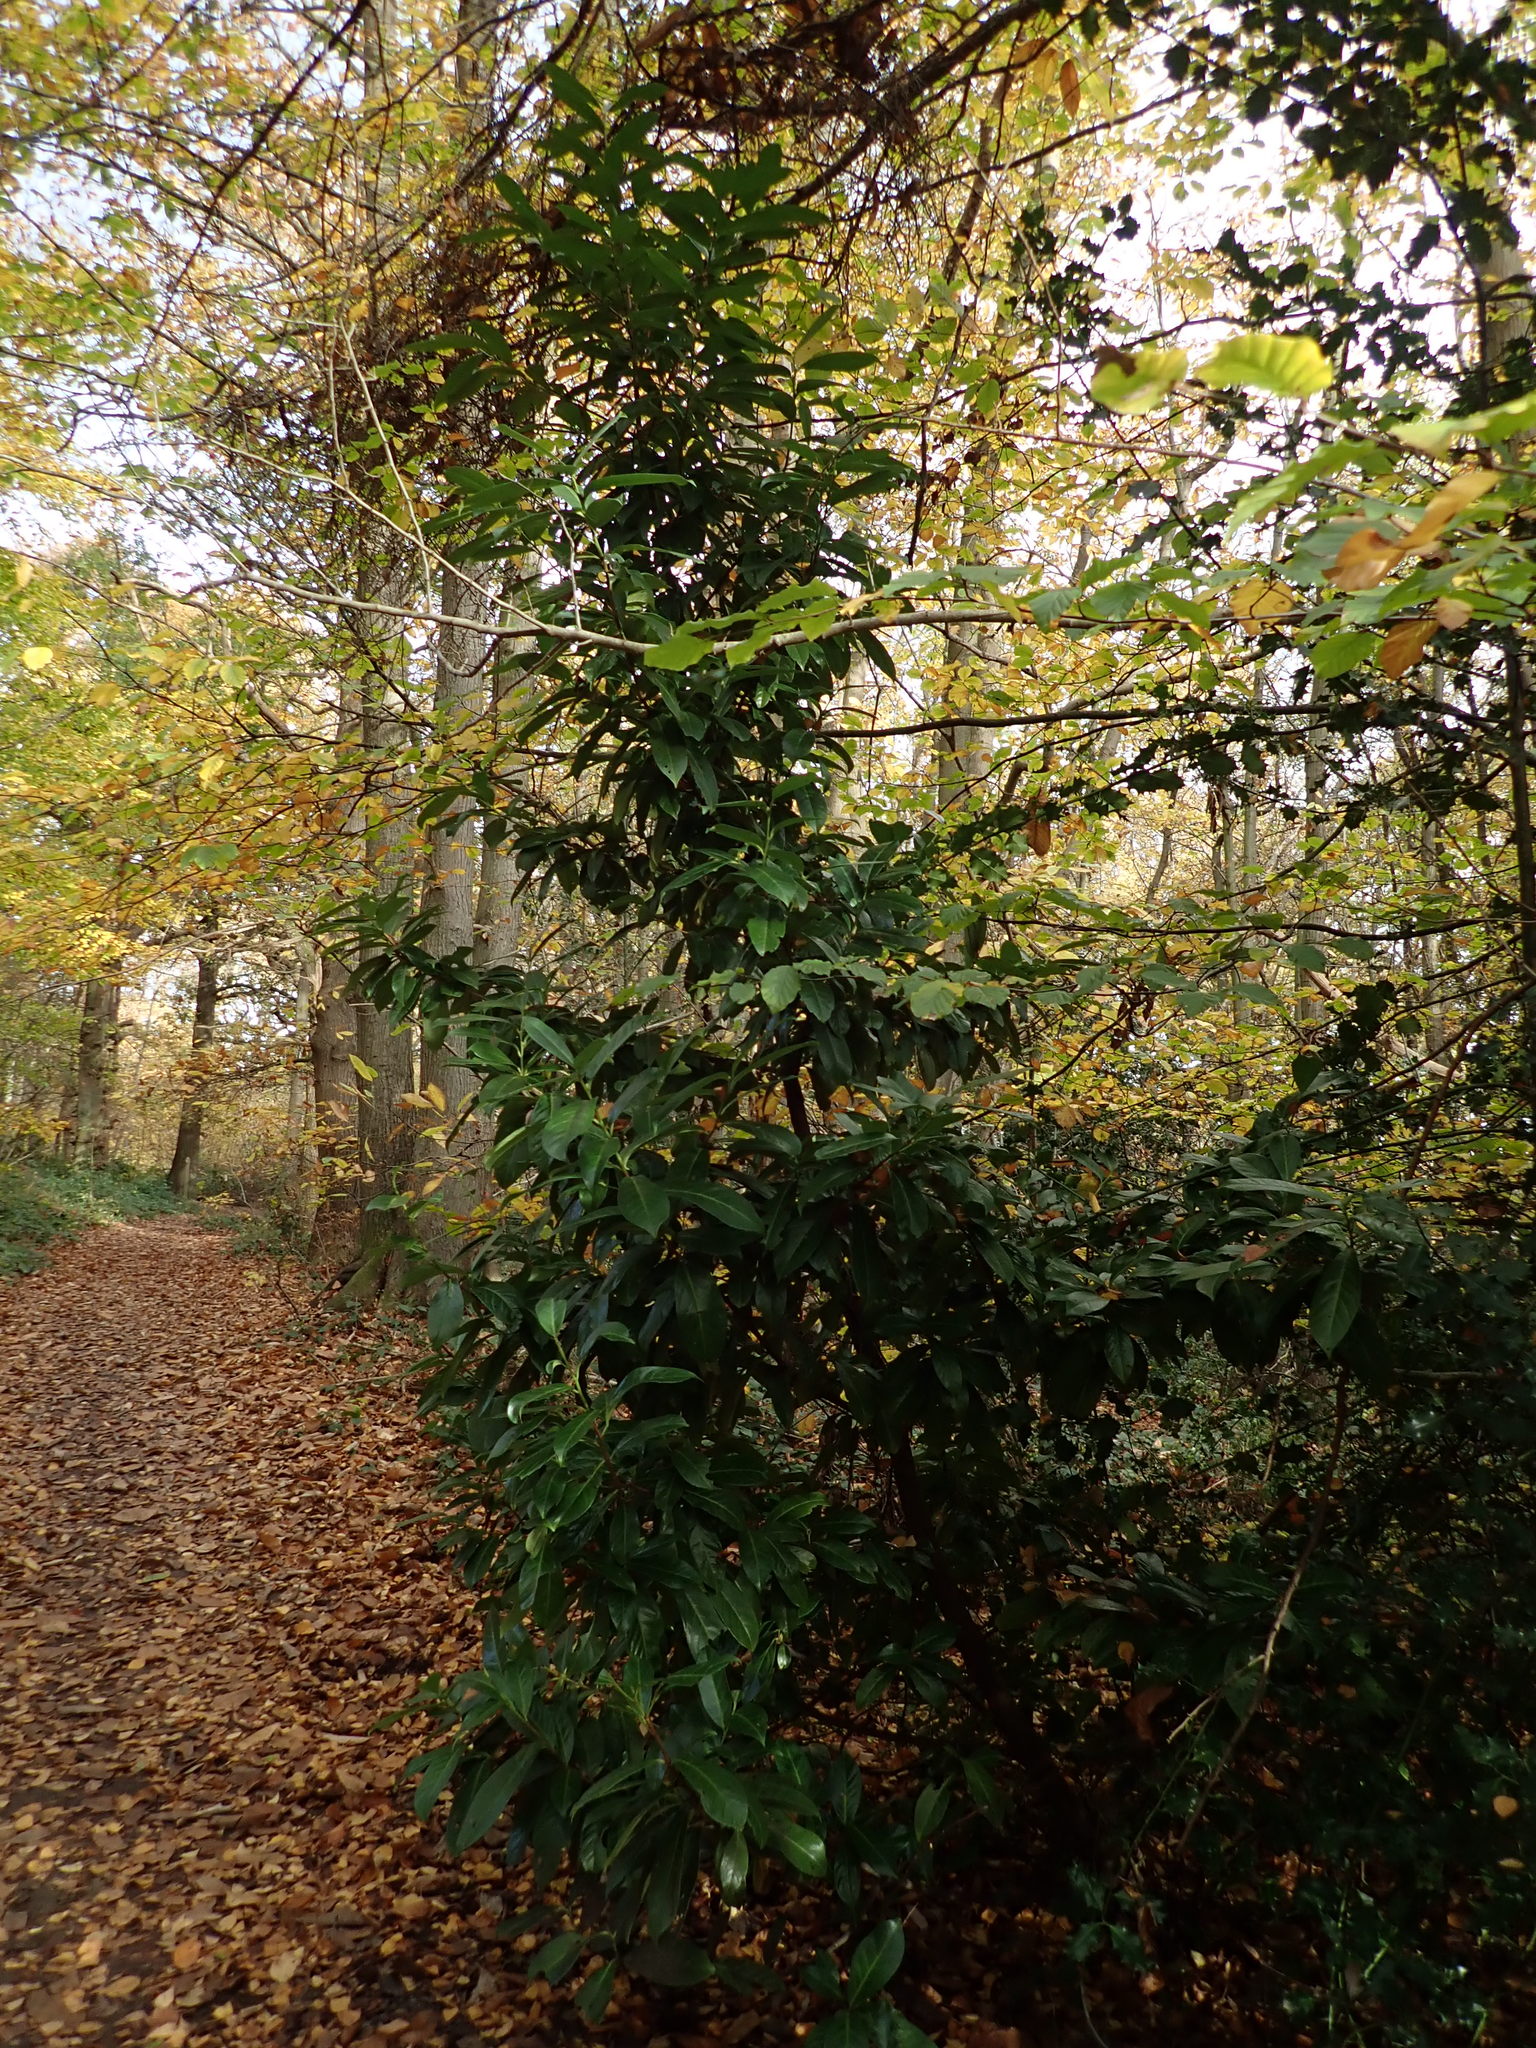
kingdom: Plantae
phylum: Tracheophyta
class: Magnoliopsida
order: Rosales
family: Rosaceae
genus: Prunus
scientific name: Prunus laurocerasus
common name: Cherry laurel
